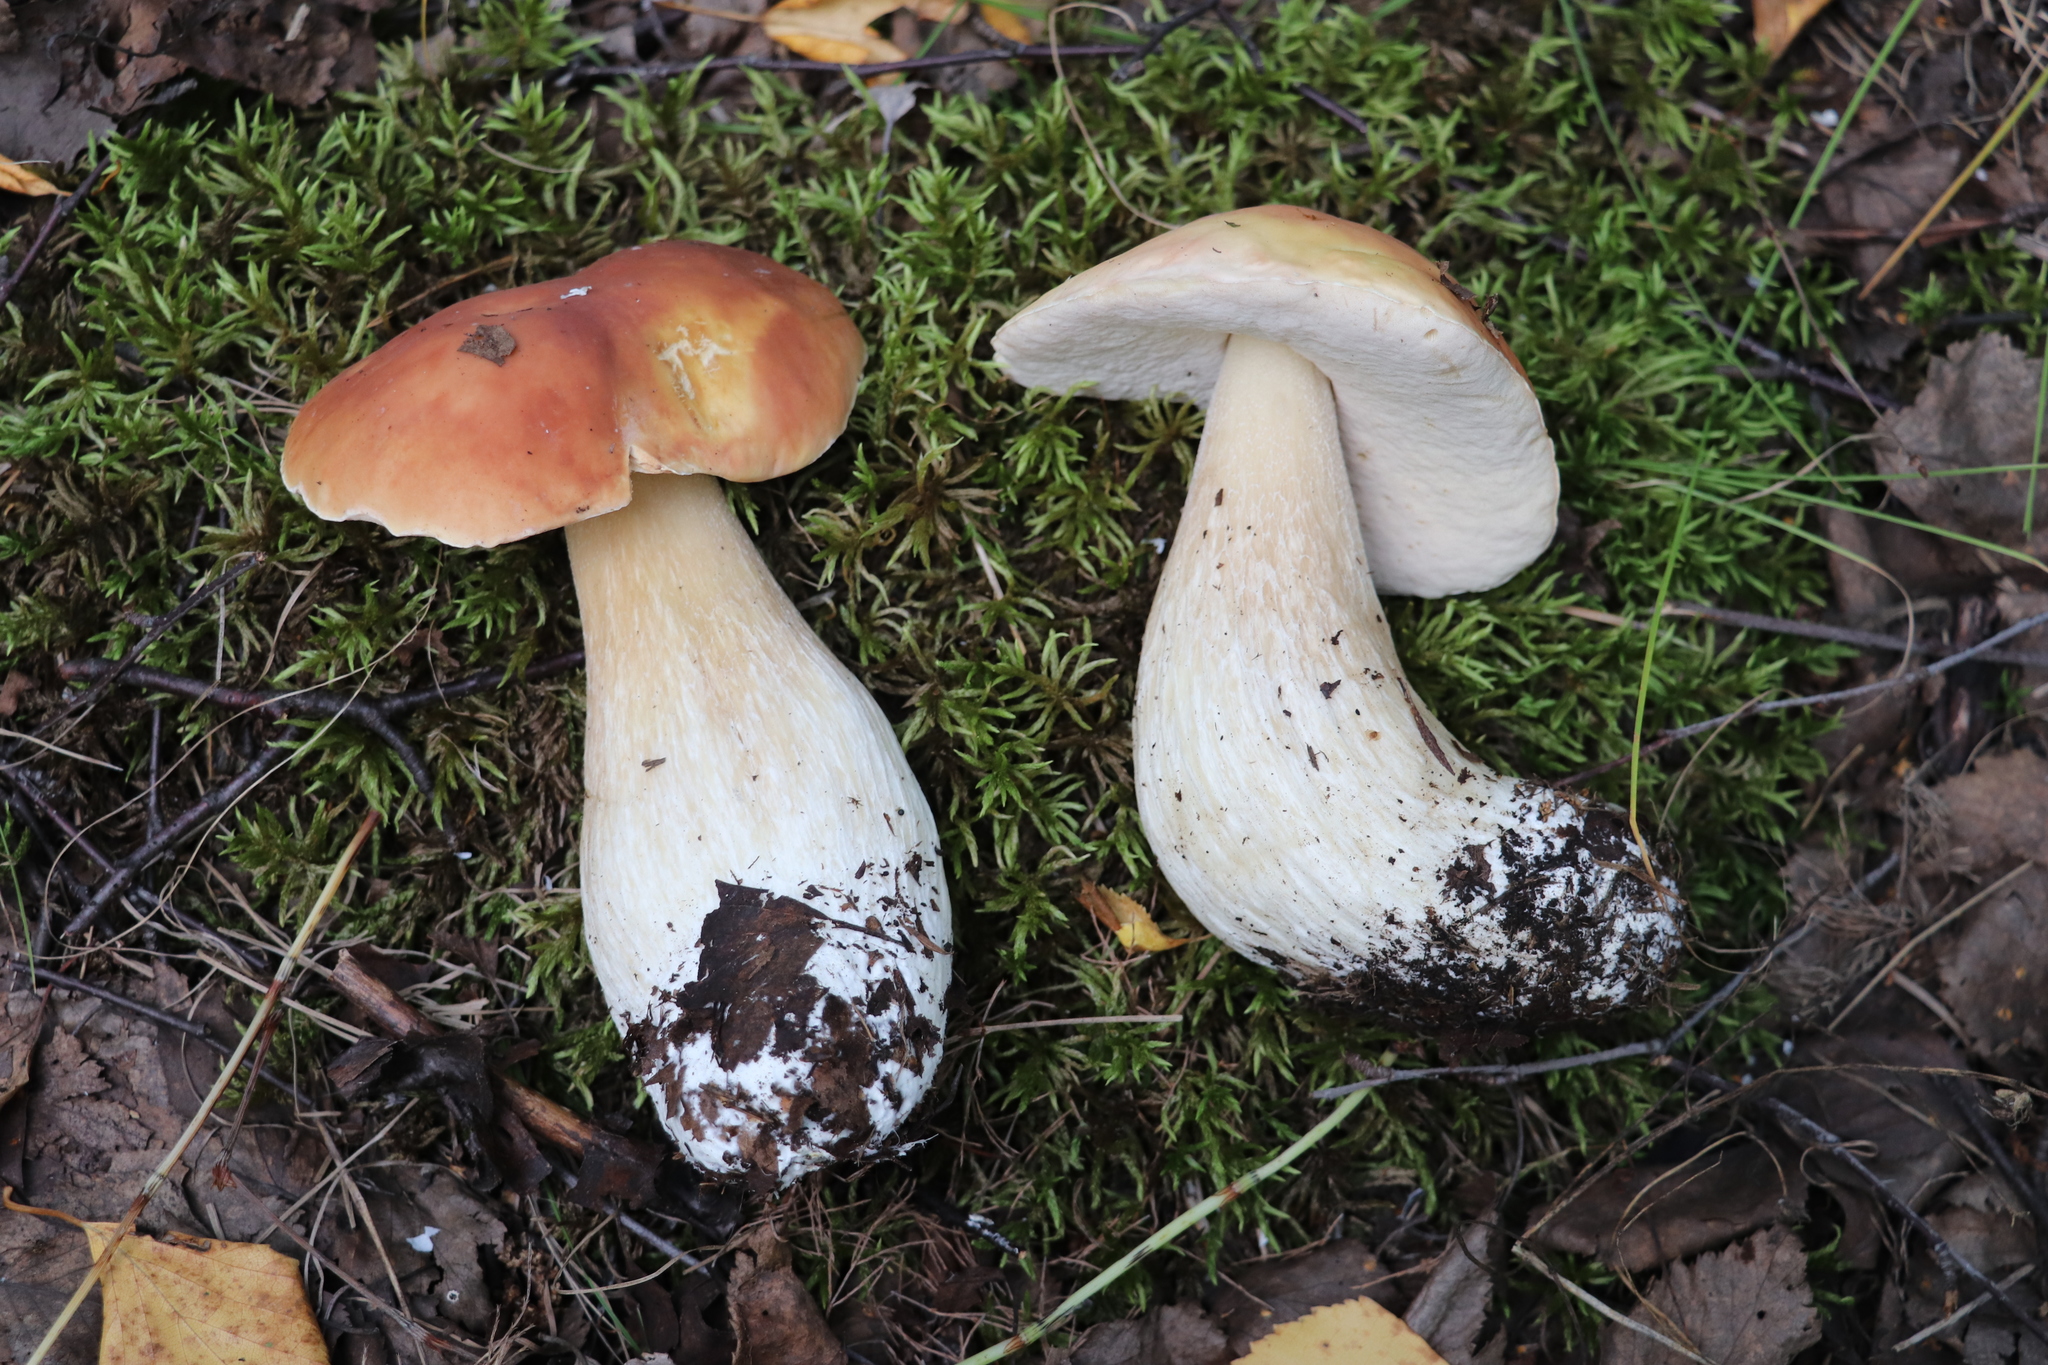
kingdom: Fungi
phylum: Basidiomycota
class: Agaricomycetes
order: Boletales
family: Boletaceae
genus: Boletus
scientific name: Boletus edulis
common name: Cep
